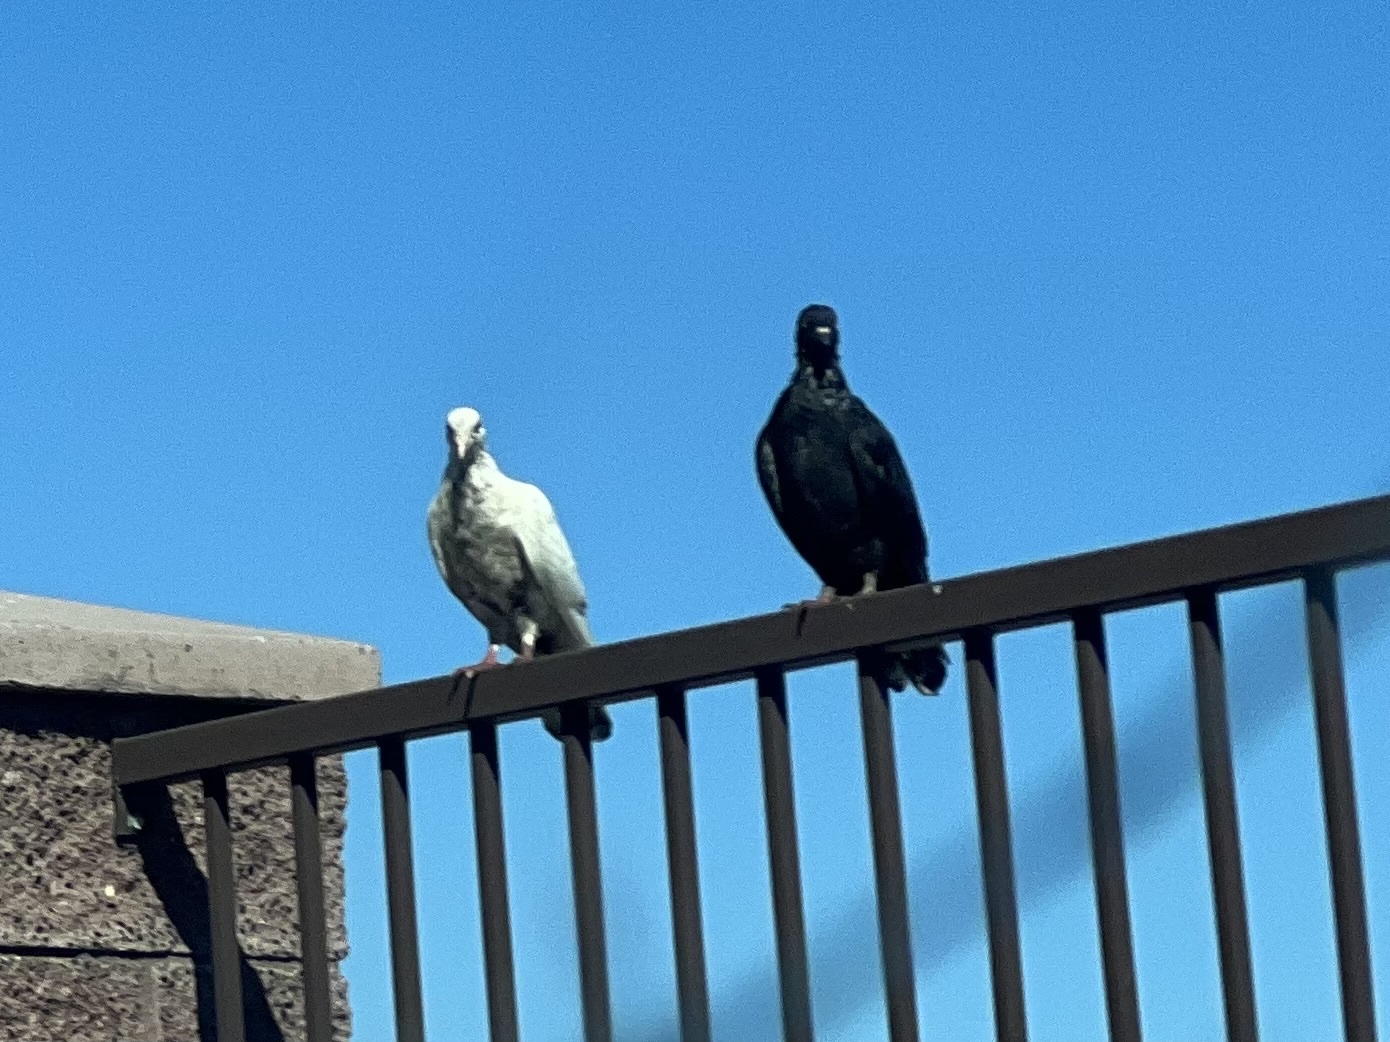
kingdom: Animalia
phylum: Chordata
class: Aves
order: Columbiformes
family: Columbidae
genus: Columba
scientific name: Columba livia
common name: Rock pigeon
